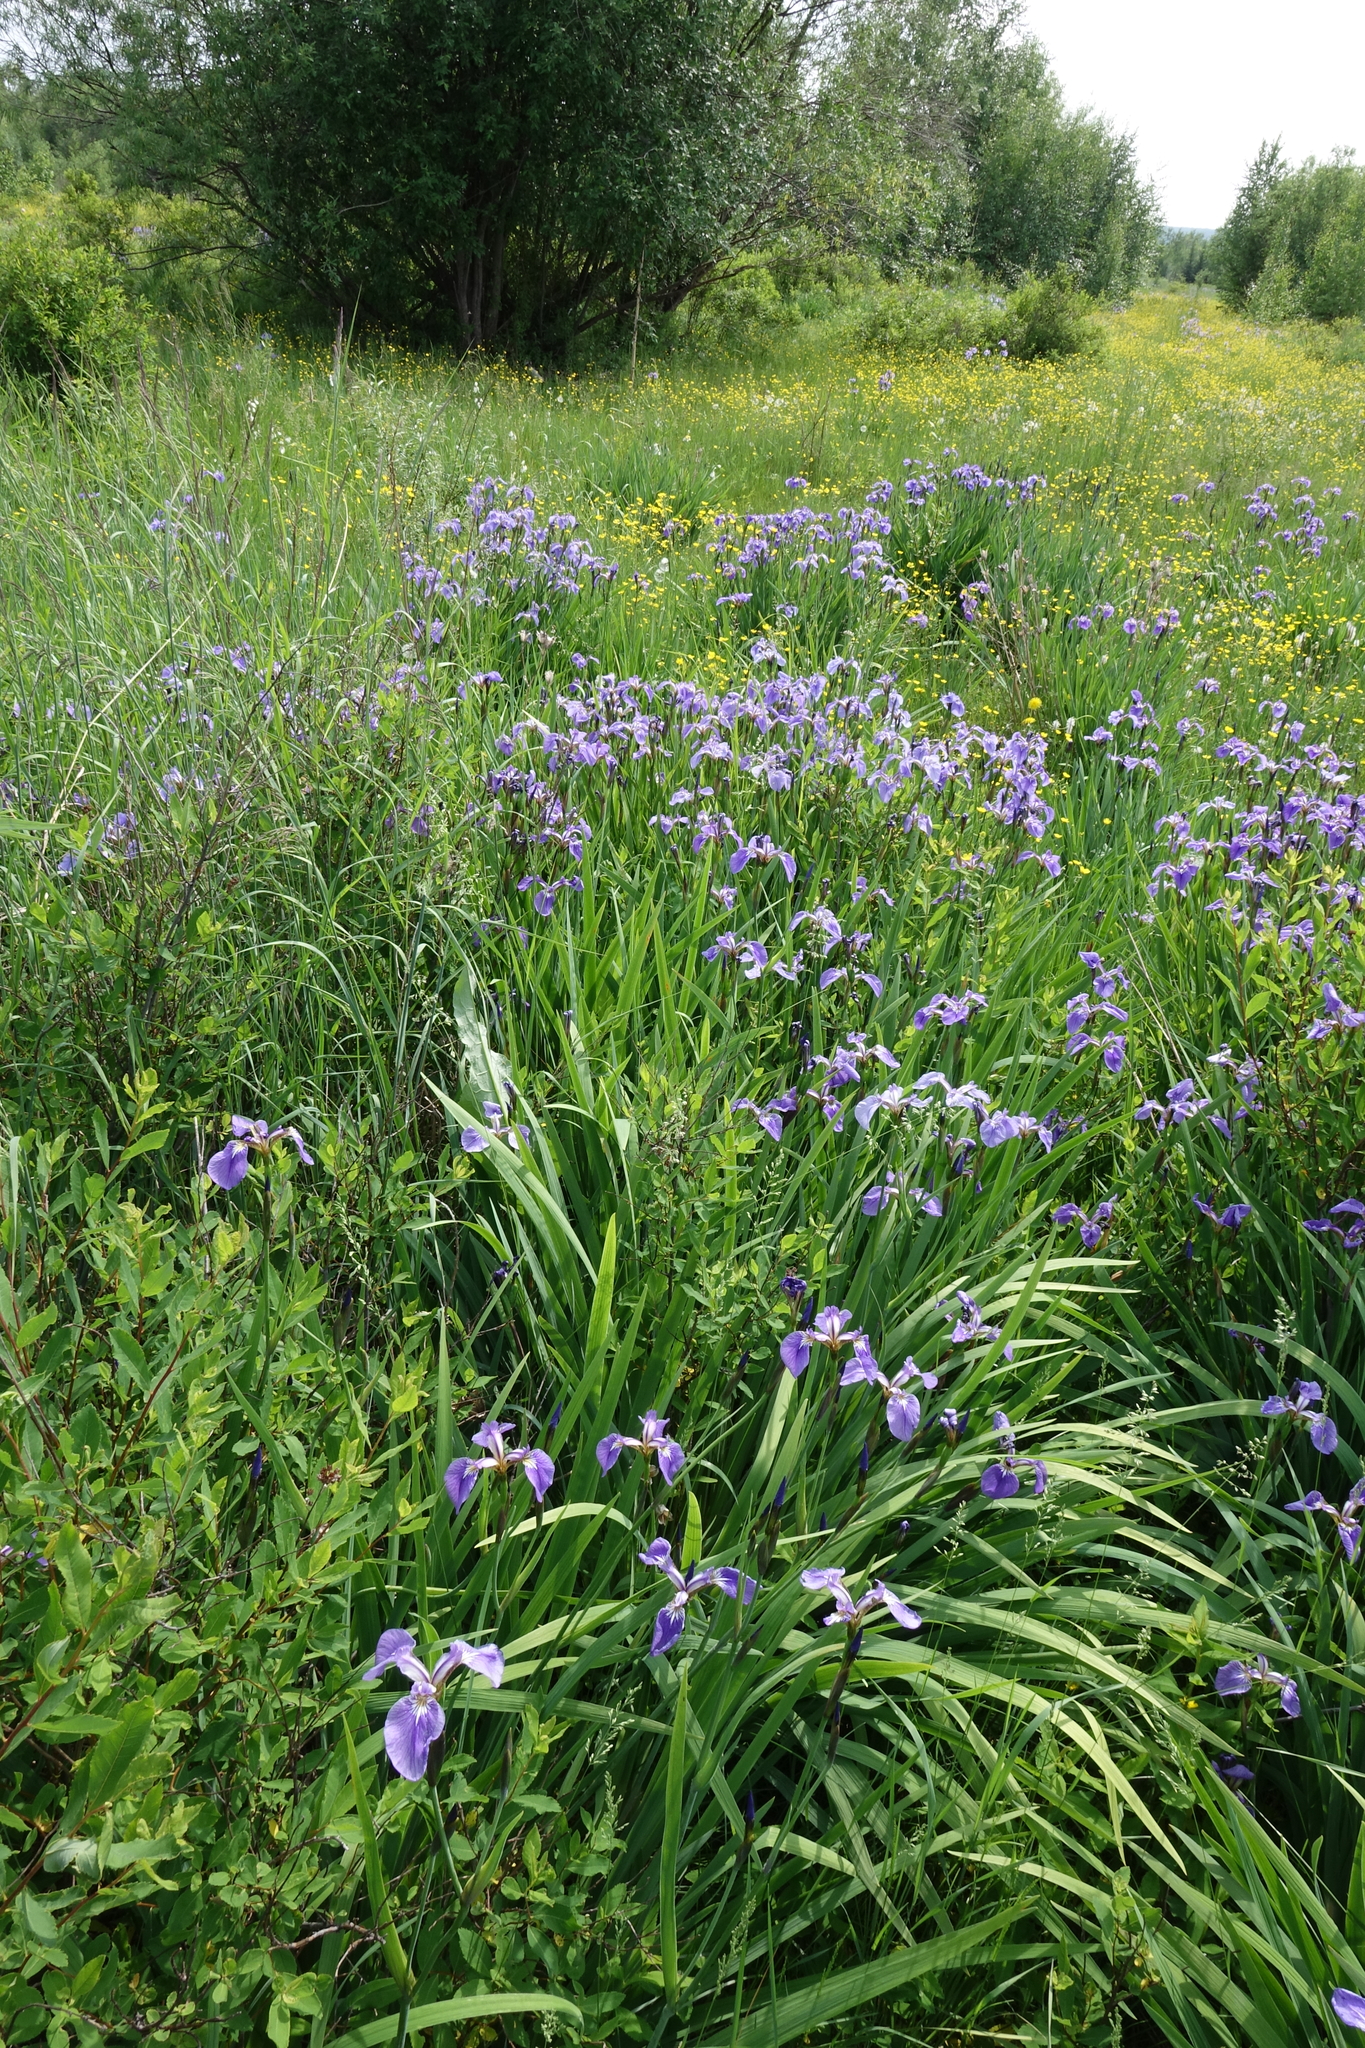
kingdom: Plantae
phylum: Tracheophyta
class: Liliopsida
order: Asparagales
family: Iridaceae
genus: Iris
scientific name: Iris setosa
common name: Arctic blue flag
